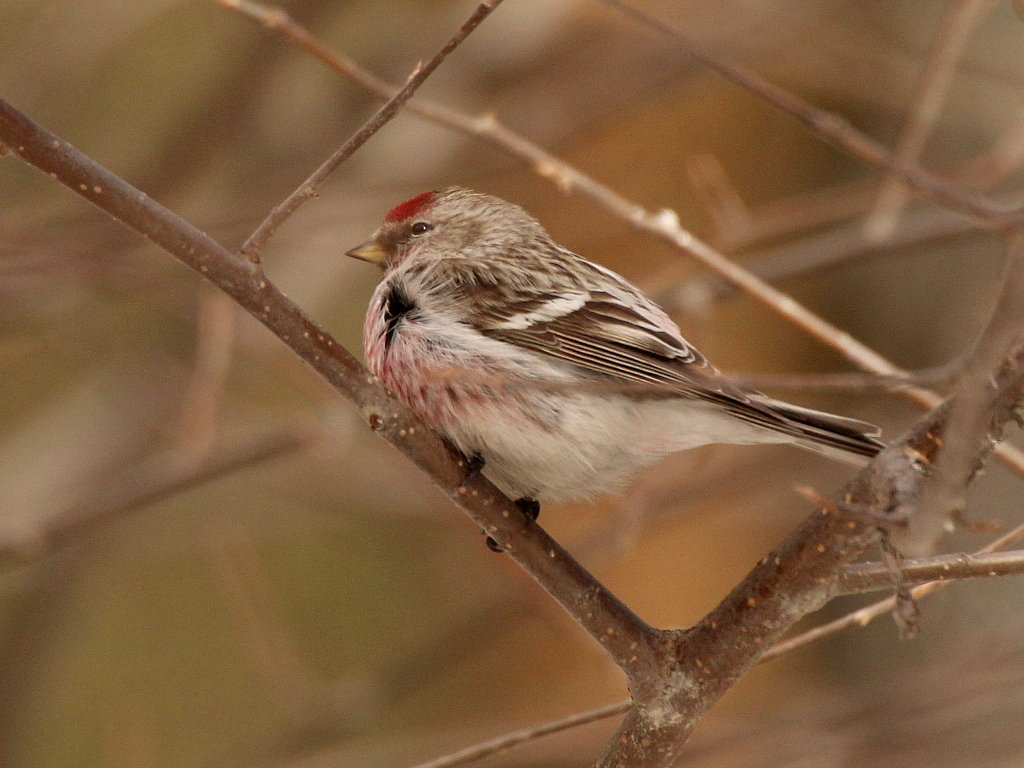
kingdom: Animalia
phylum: Chordata
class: Aves
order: Passeriformes
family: Fringillidae
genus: Acanthis
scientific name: Acanthis flammea
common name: Common redpoll
